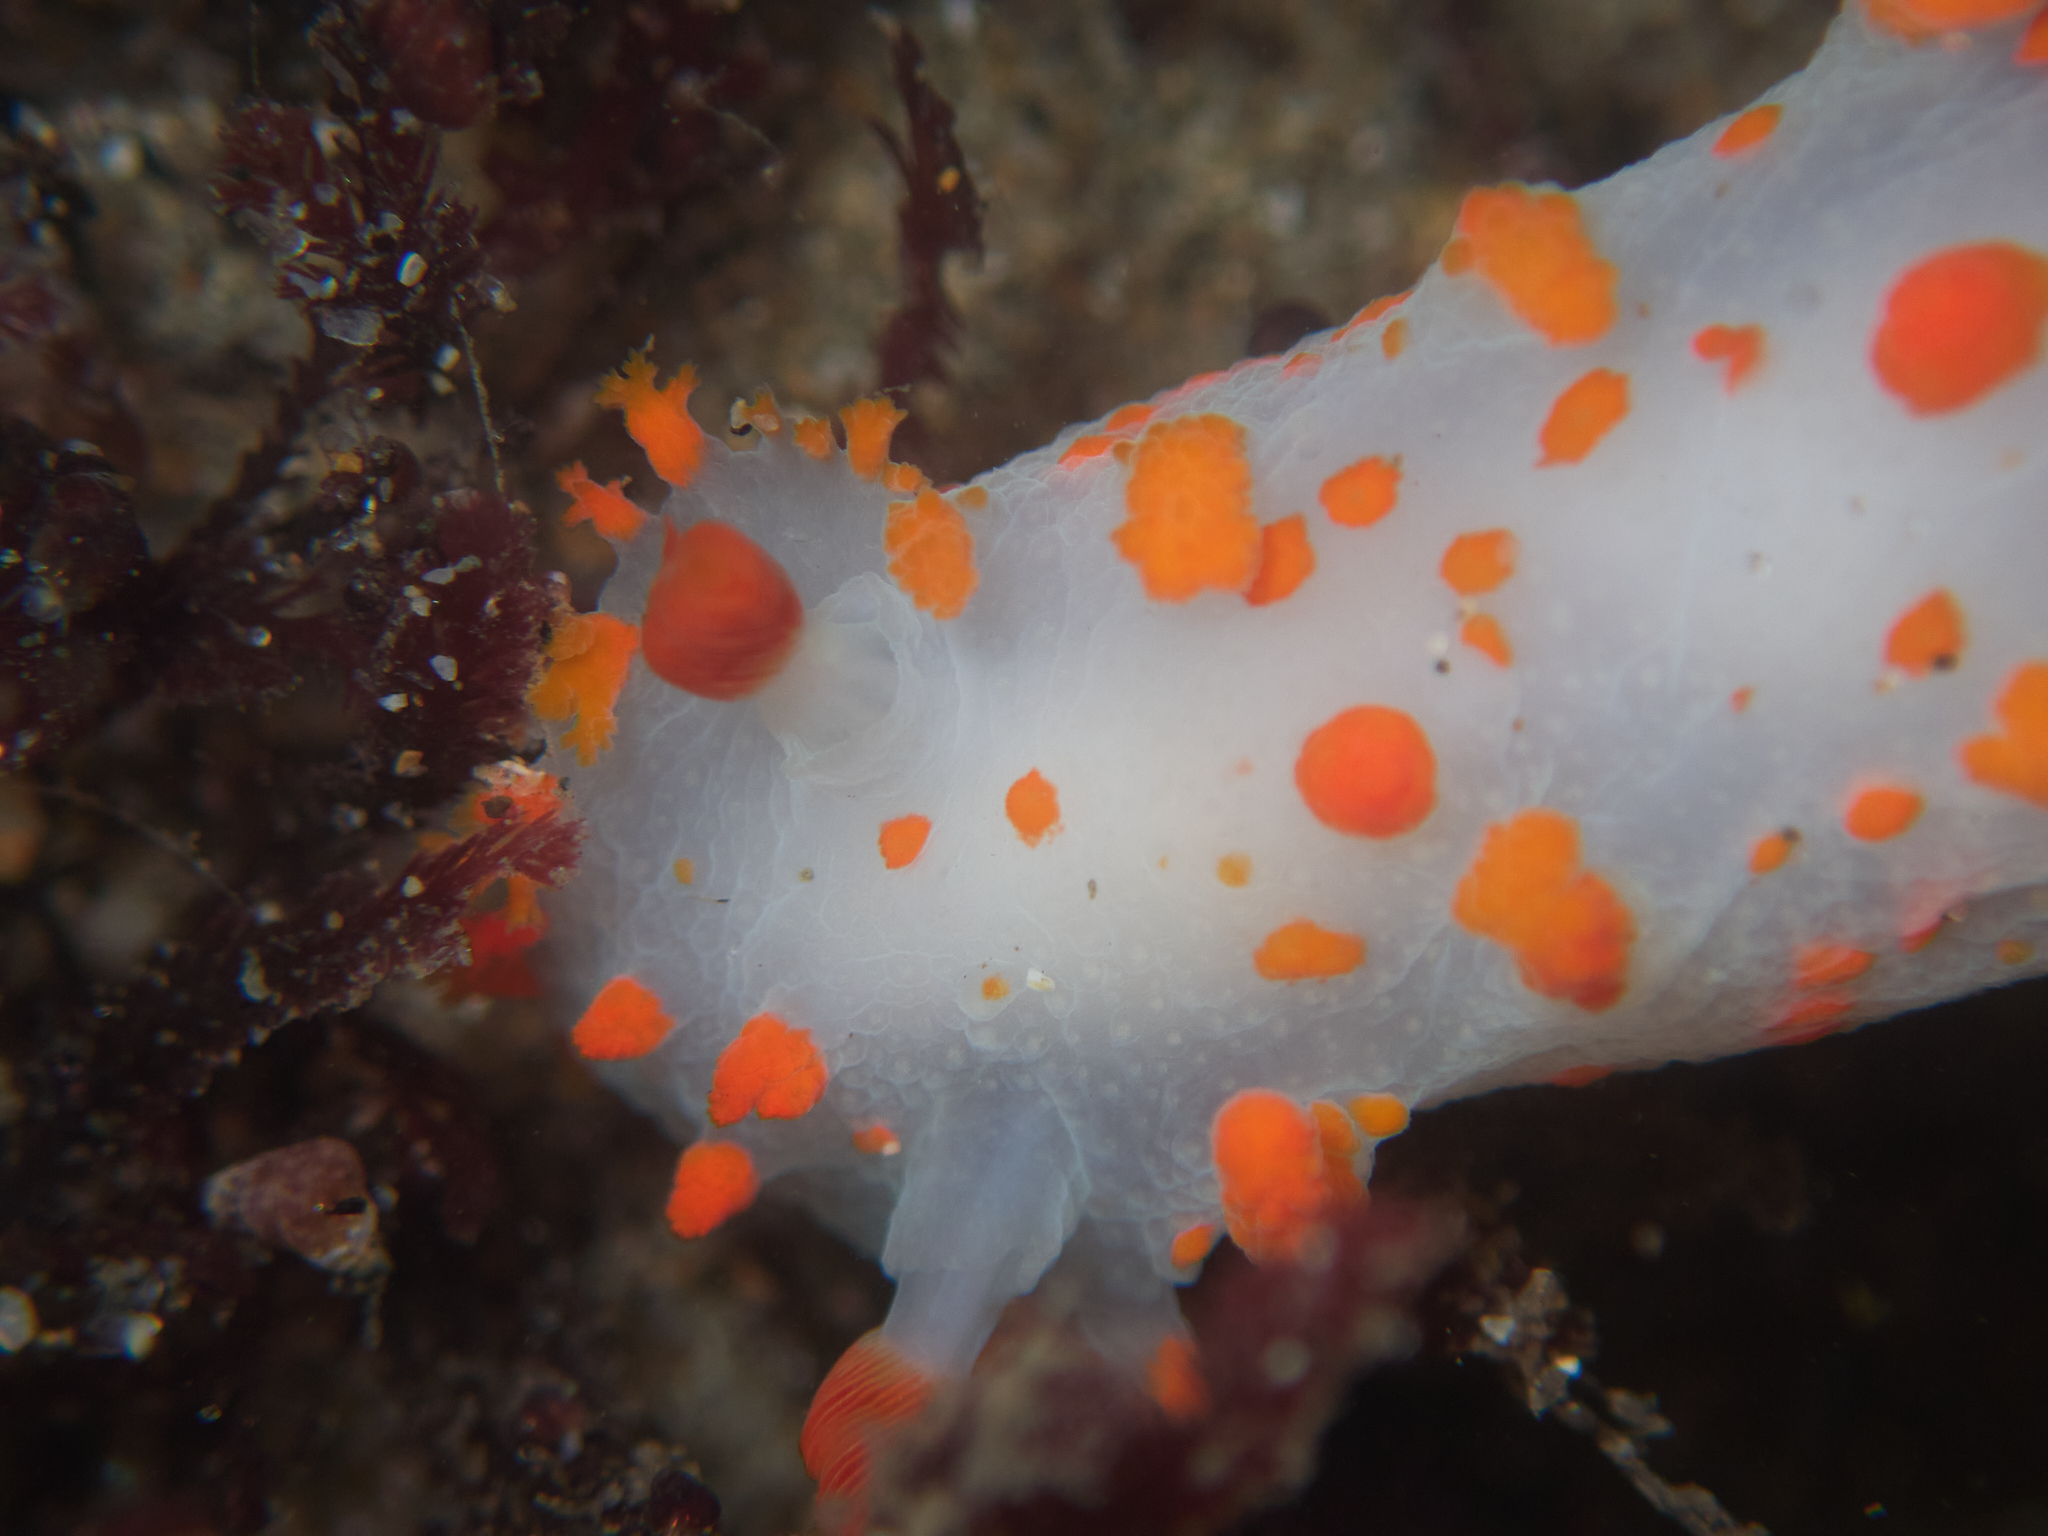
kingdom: Animalia
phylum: Mollusca
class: Gastropoda
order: Nudibranchia
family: Polyceridae
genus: Triopha
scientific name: Triopha catalinae
